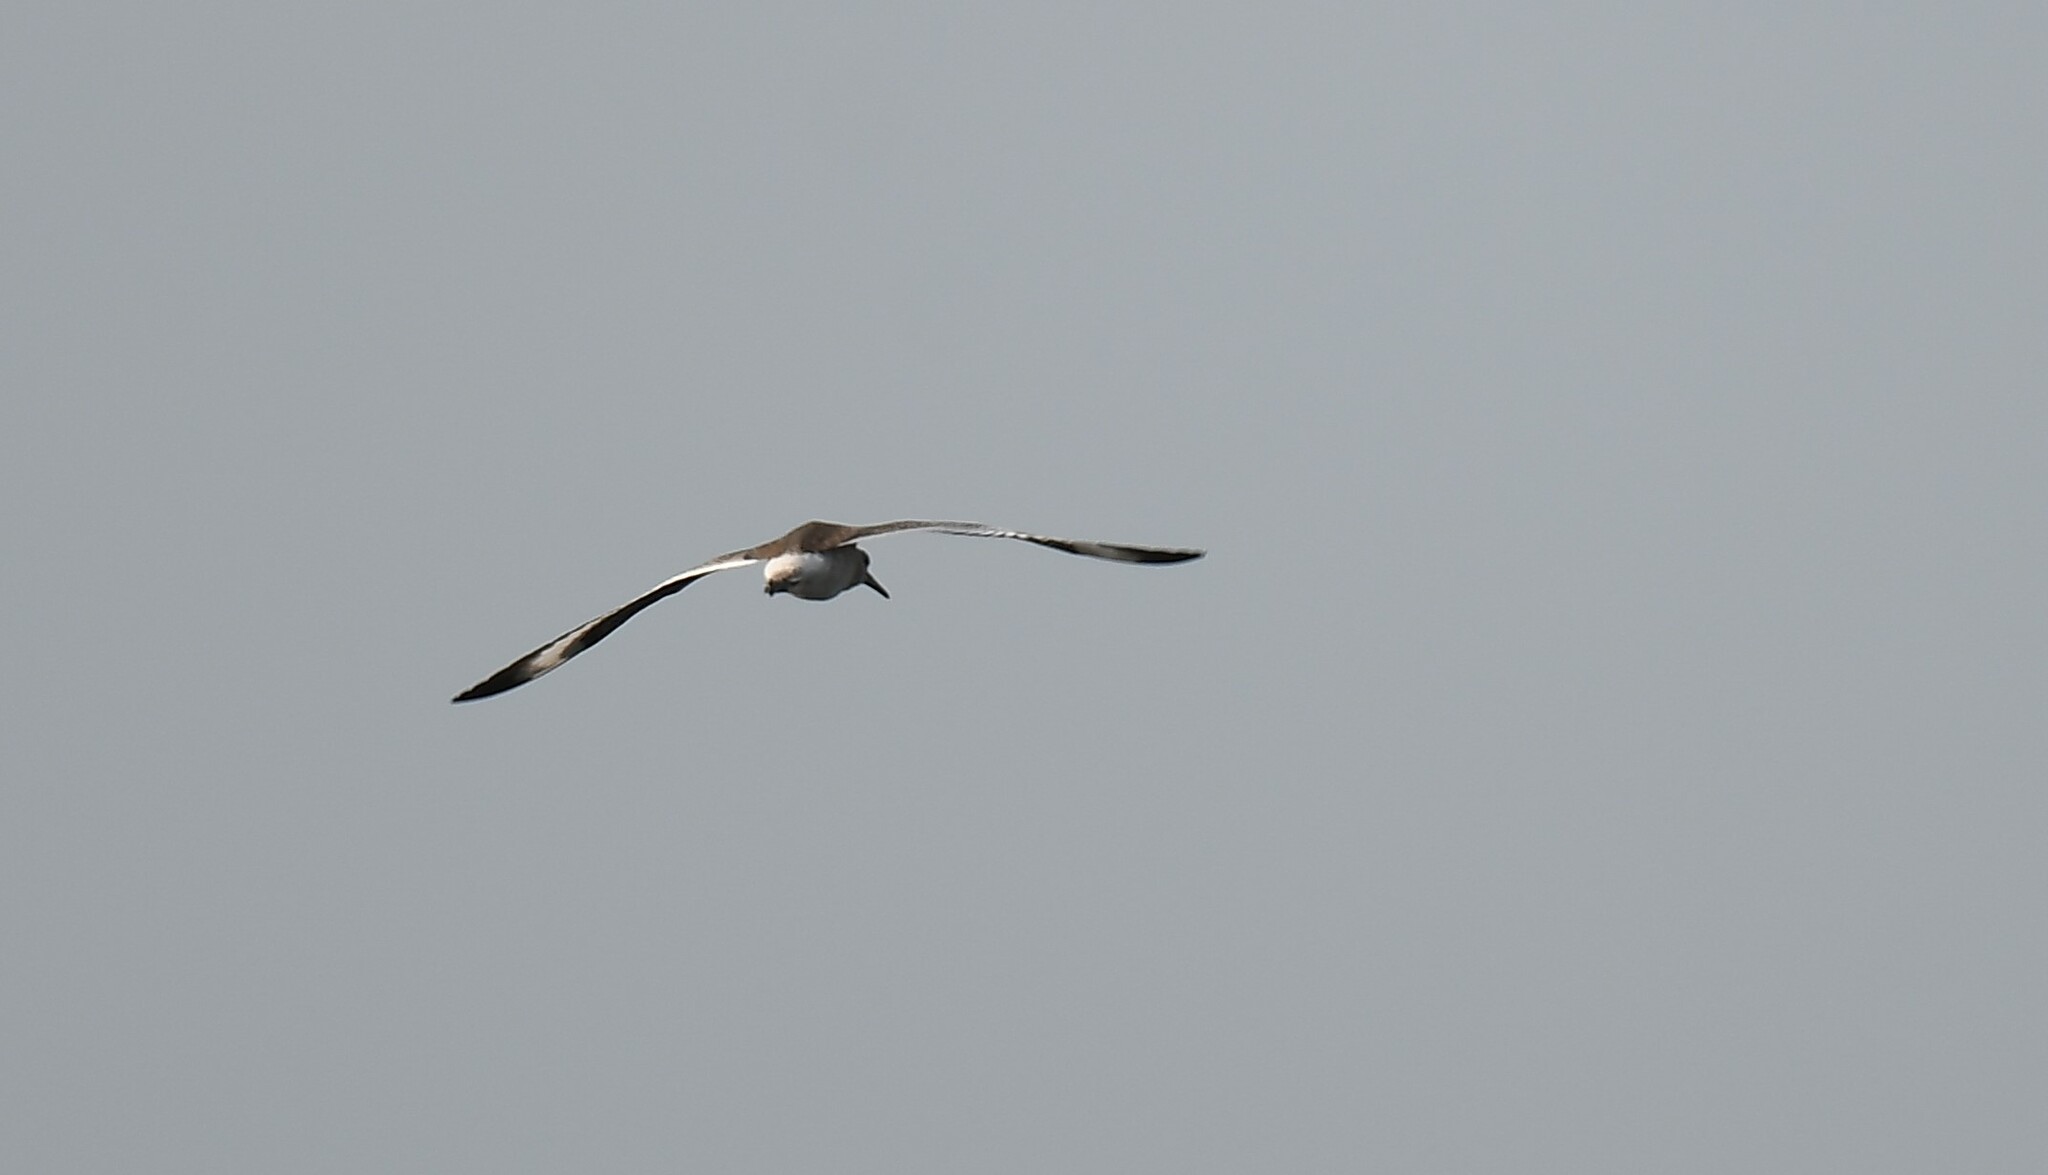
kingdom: Animalia
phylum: Chordata
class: Aves
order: Charadriiformes
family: Scolopacidae
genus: Tringa
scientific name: Tringa semipalmata
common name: Willet
